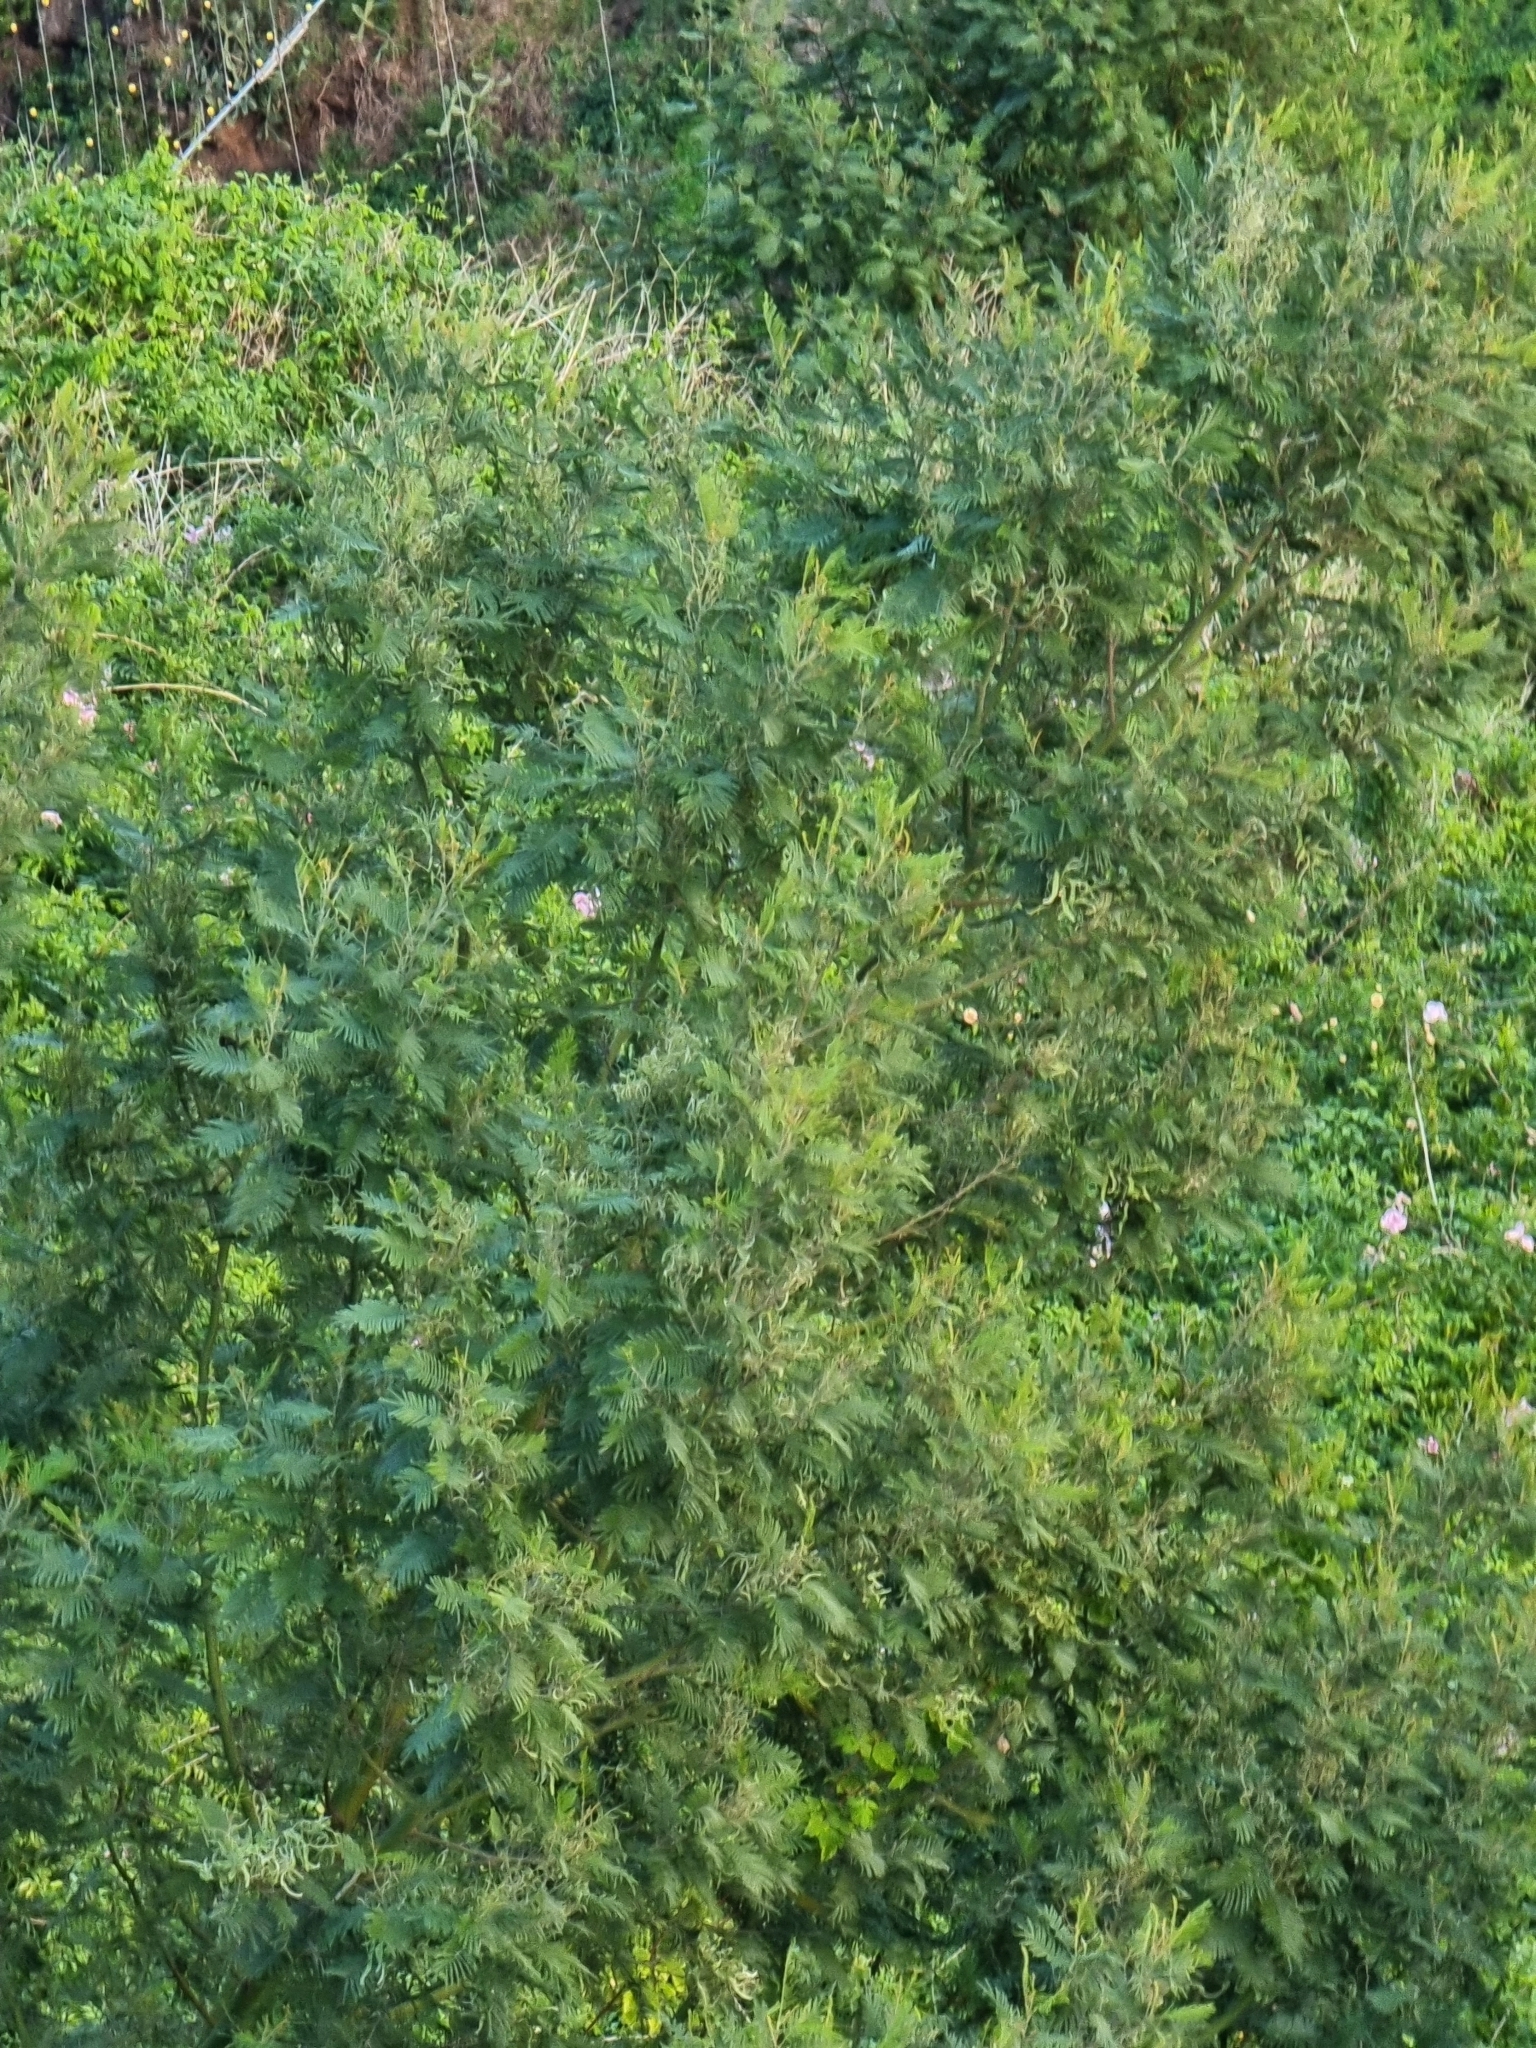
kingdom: Plantae
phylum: Tracheophyta
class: Magnoliopsida
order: Fabales
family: Fabaceae
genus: Acacia
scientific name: Acacia mearnsii
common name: Black wattle
